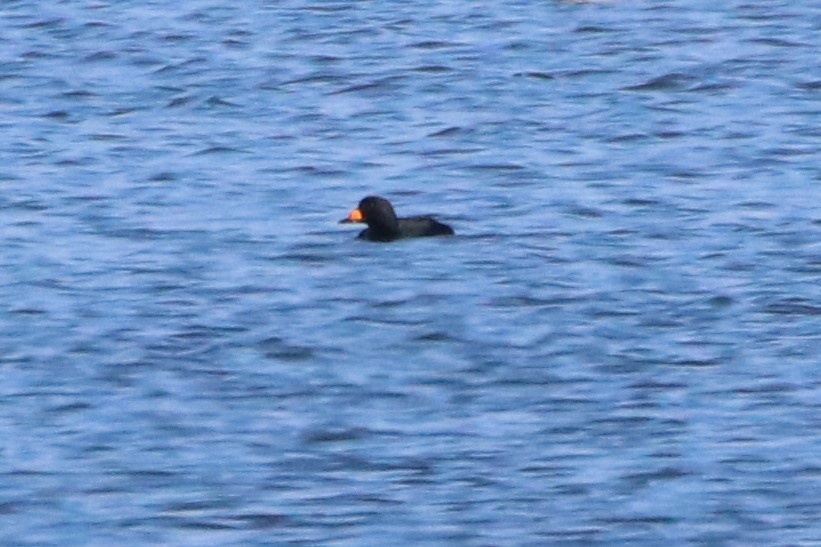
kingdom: Animalia
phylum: Chordata
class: Aves
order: Anseriformes
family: Anatidae
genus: Melanitta
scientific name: Melanitta americana
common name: Black scoter
